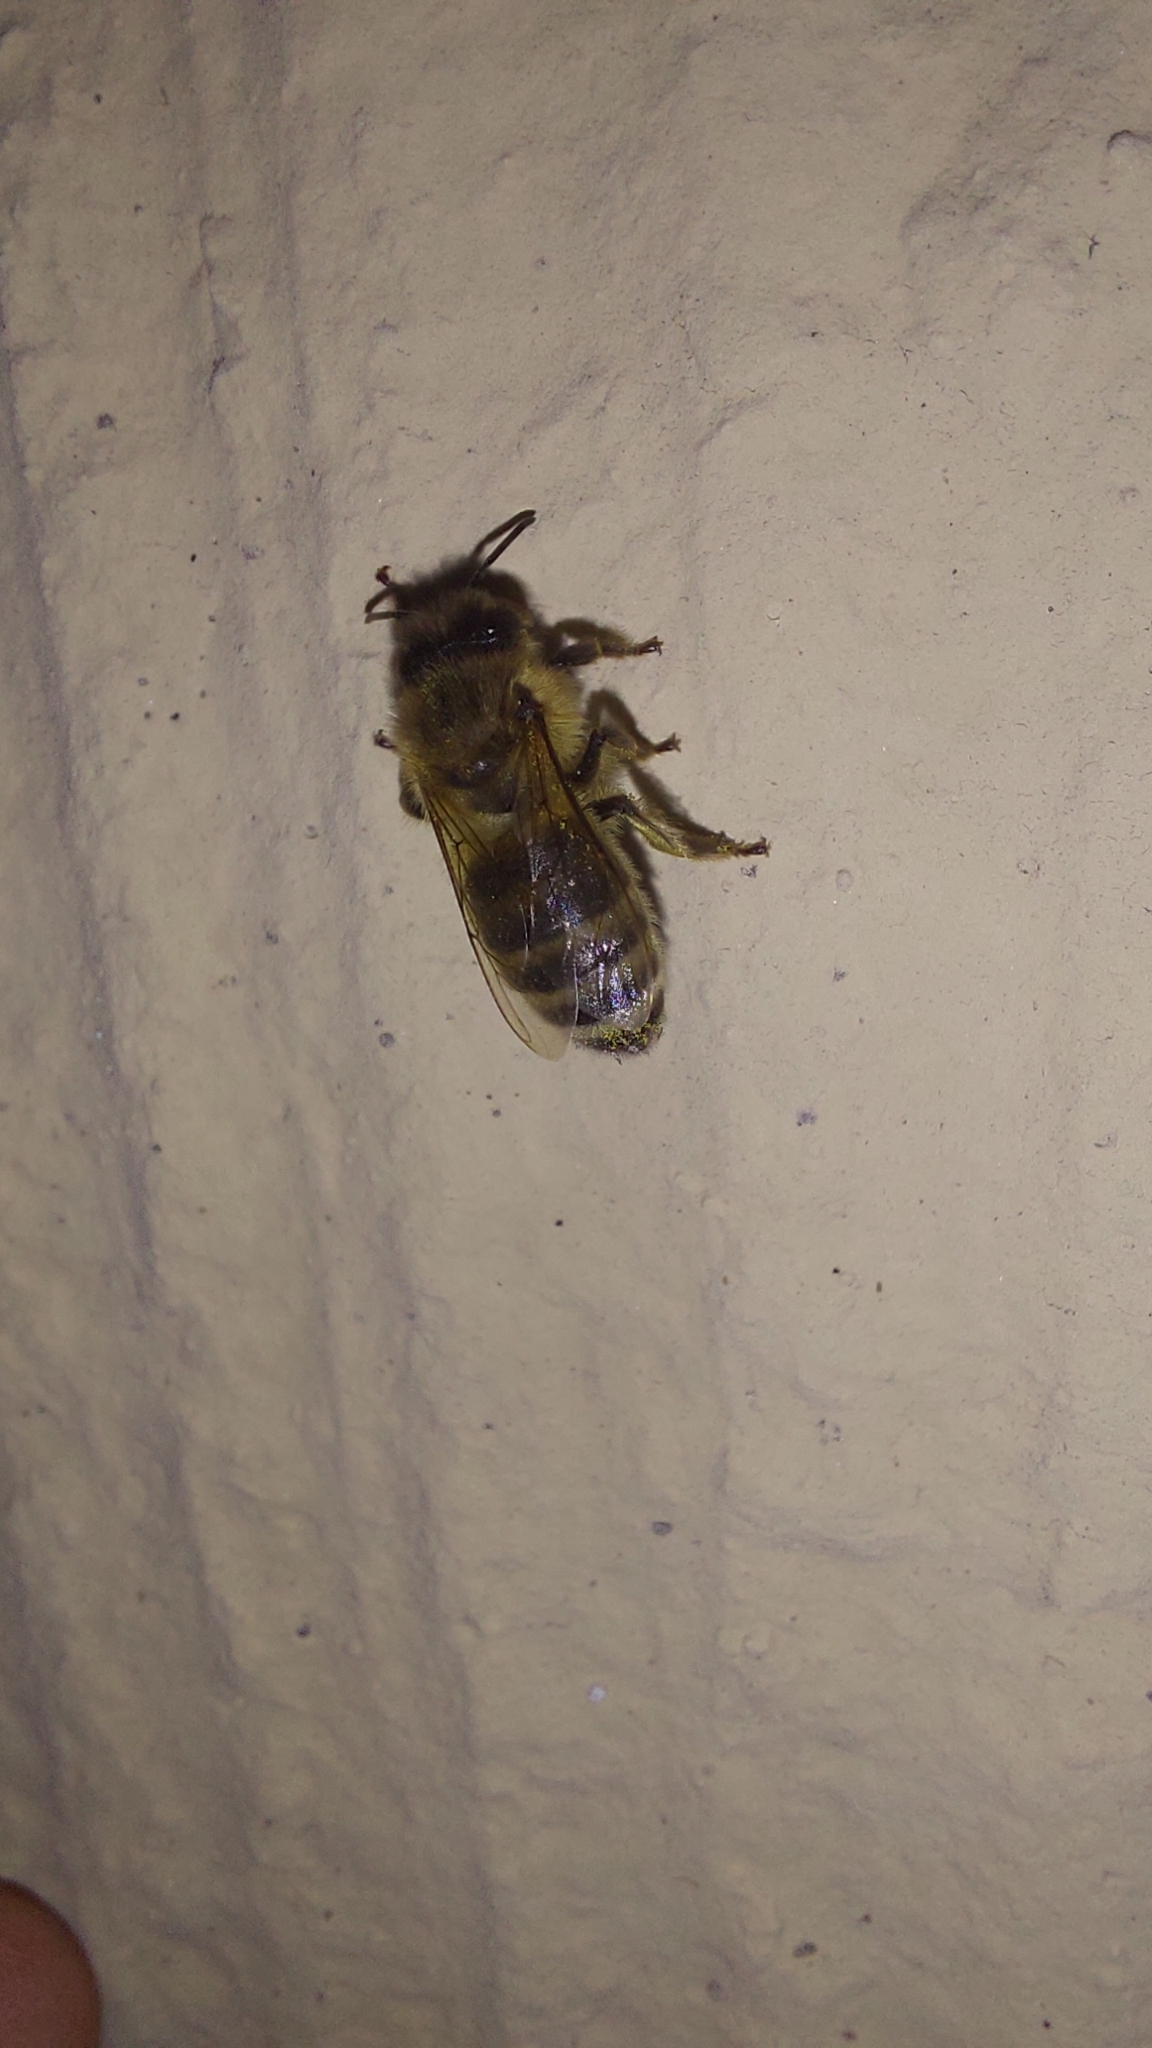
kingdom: Animalia
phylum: Arthropoda
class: Insecta
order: Hymenoptera
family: Apidae
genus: Apis
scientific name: Apis mellifera
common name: Honey bee
